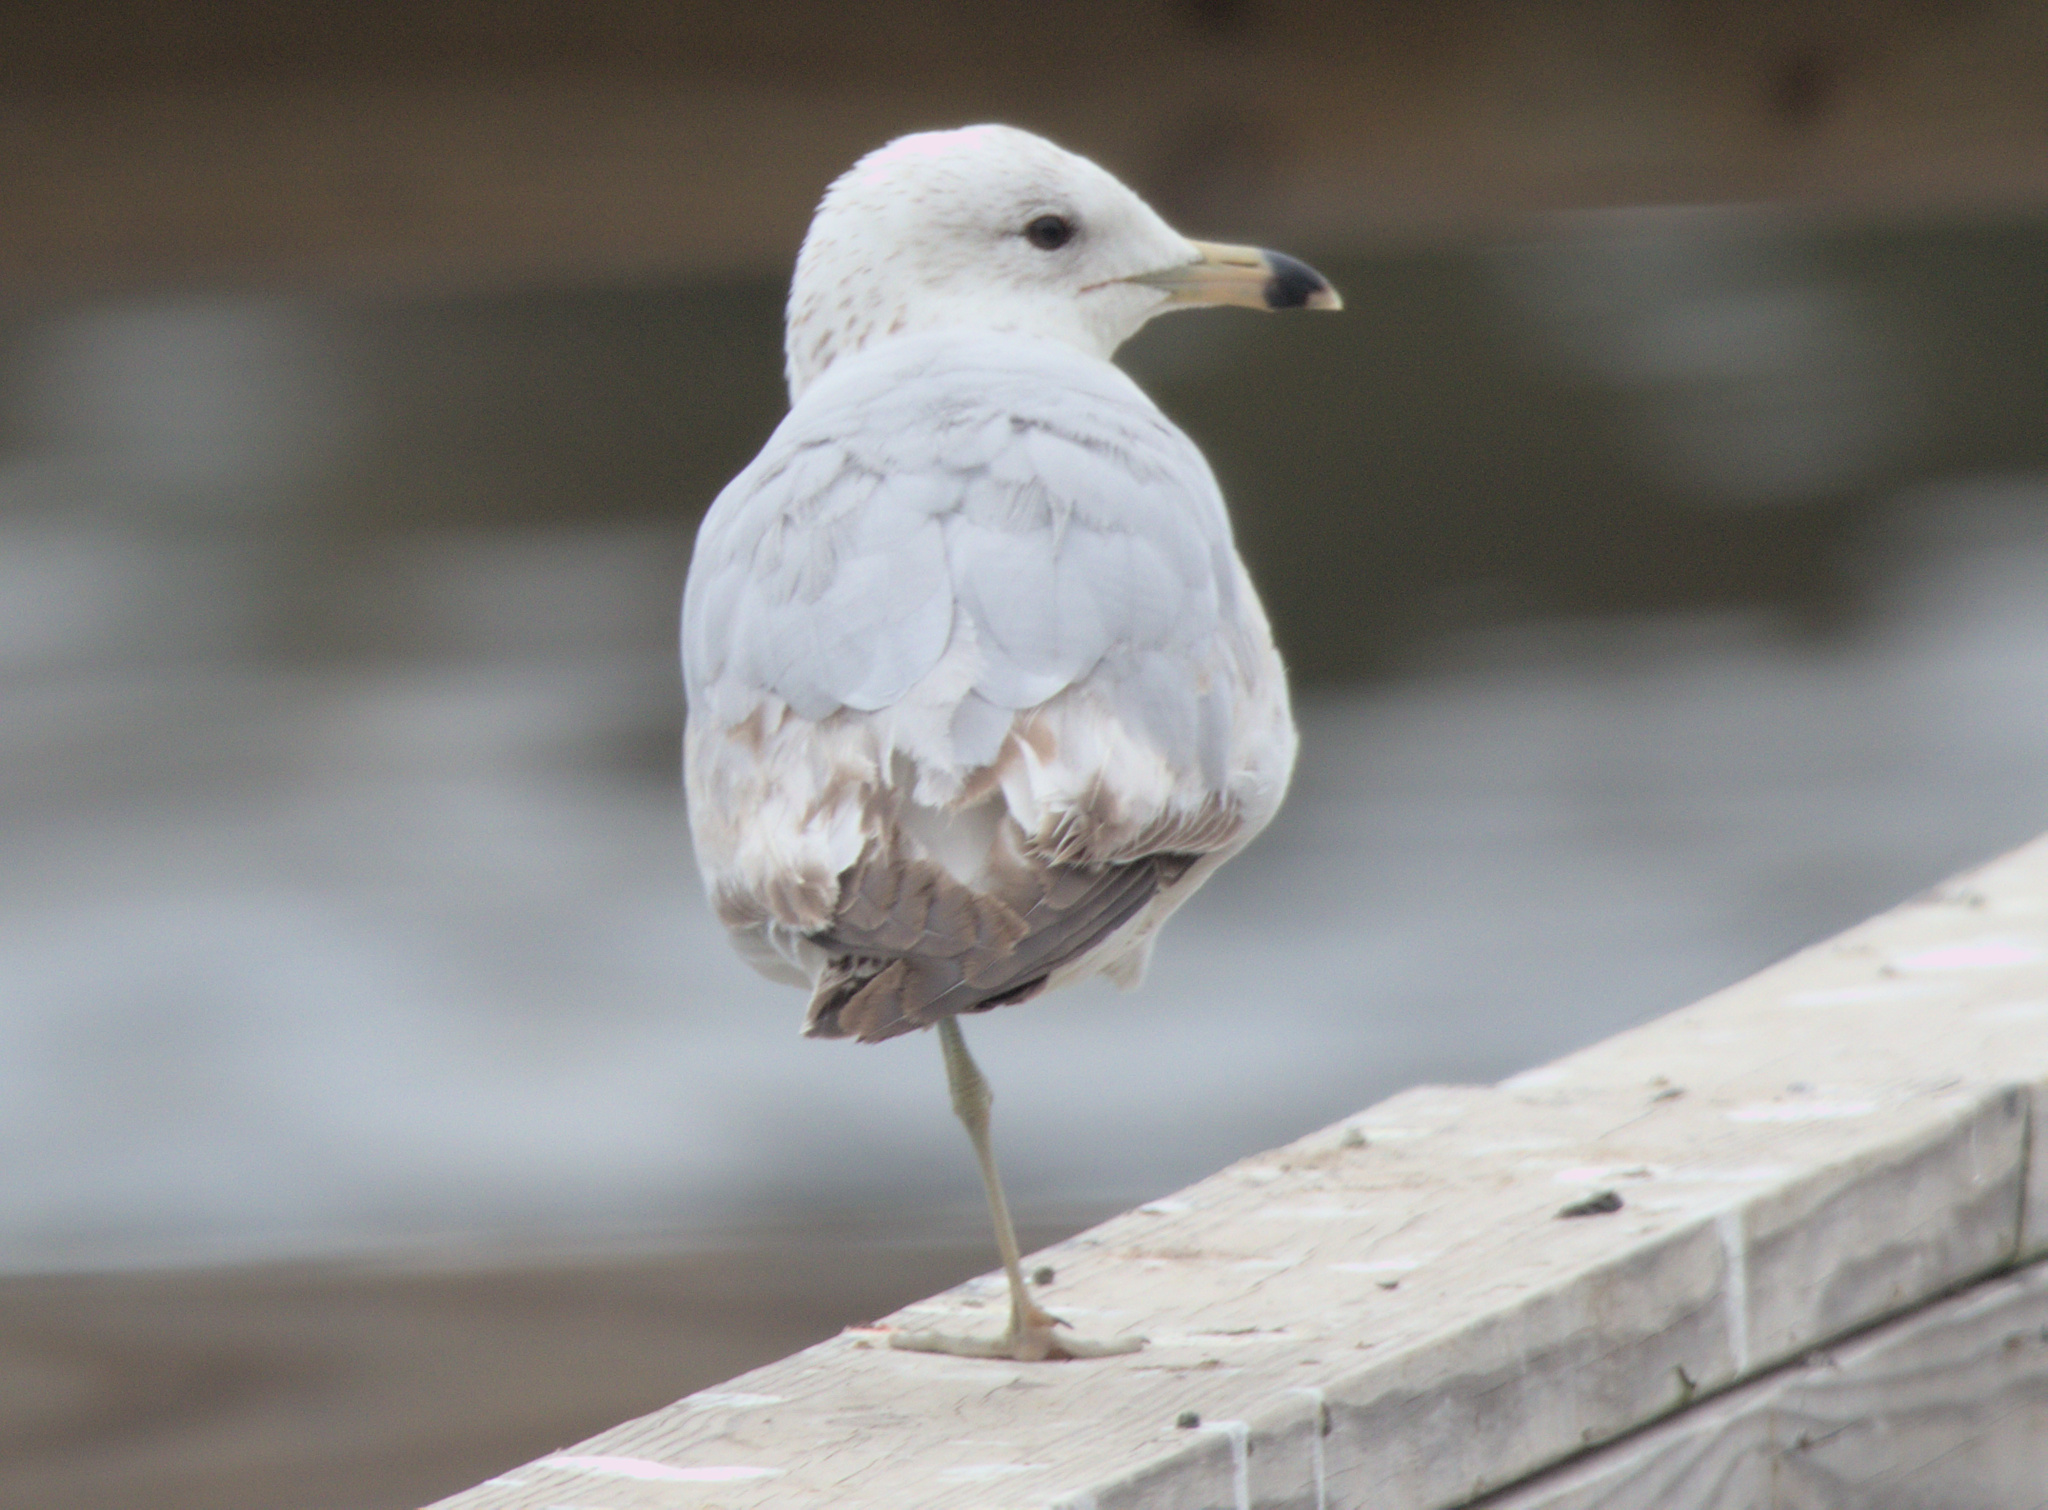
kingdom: Animalia
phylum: Chordata
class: Aves
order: Charadriiformes
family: Laridae
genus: Larus
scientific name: Larus delawarensis
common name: Ring-billed gull
